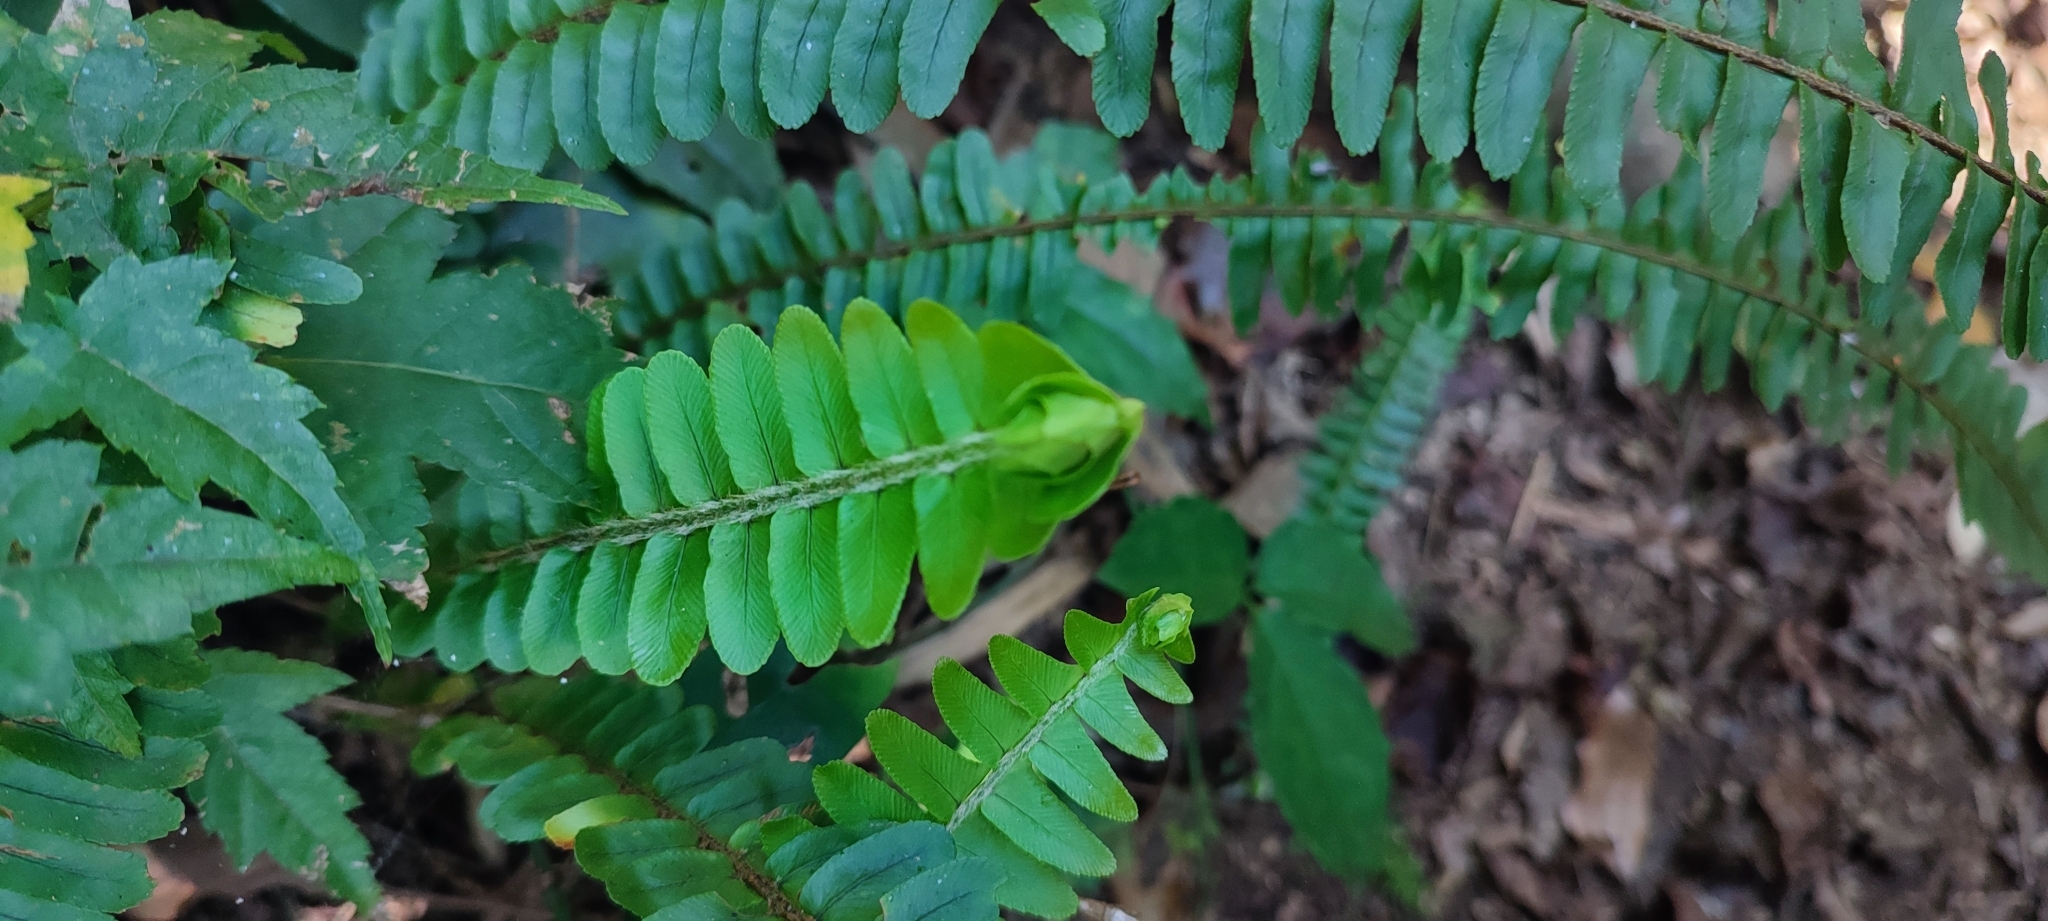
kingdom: Plantae
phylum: Tracheophyta
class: Polypodiopsida
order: Polypodiales
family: Nephrolepidaceae
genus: Nephrolepis
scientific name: Nephrolepis cordifolia
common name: Narrow swordfern
